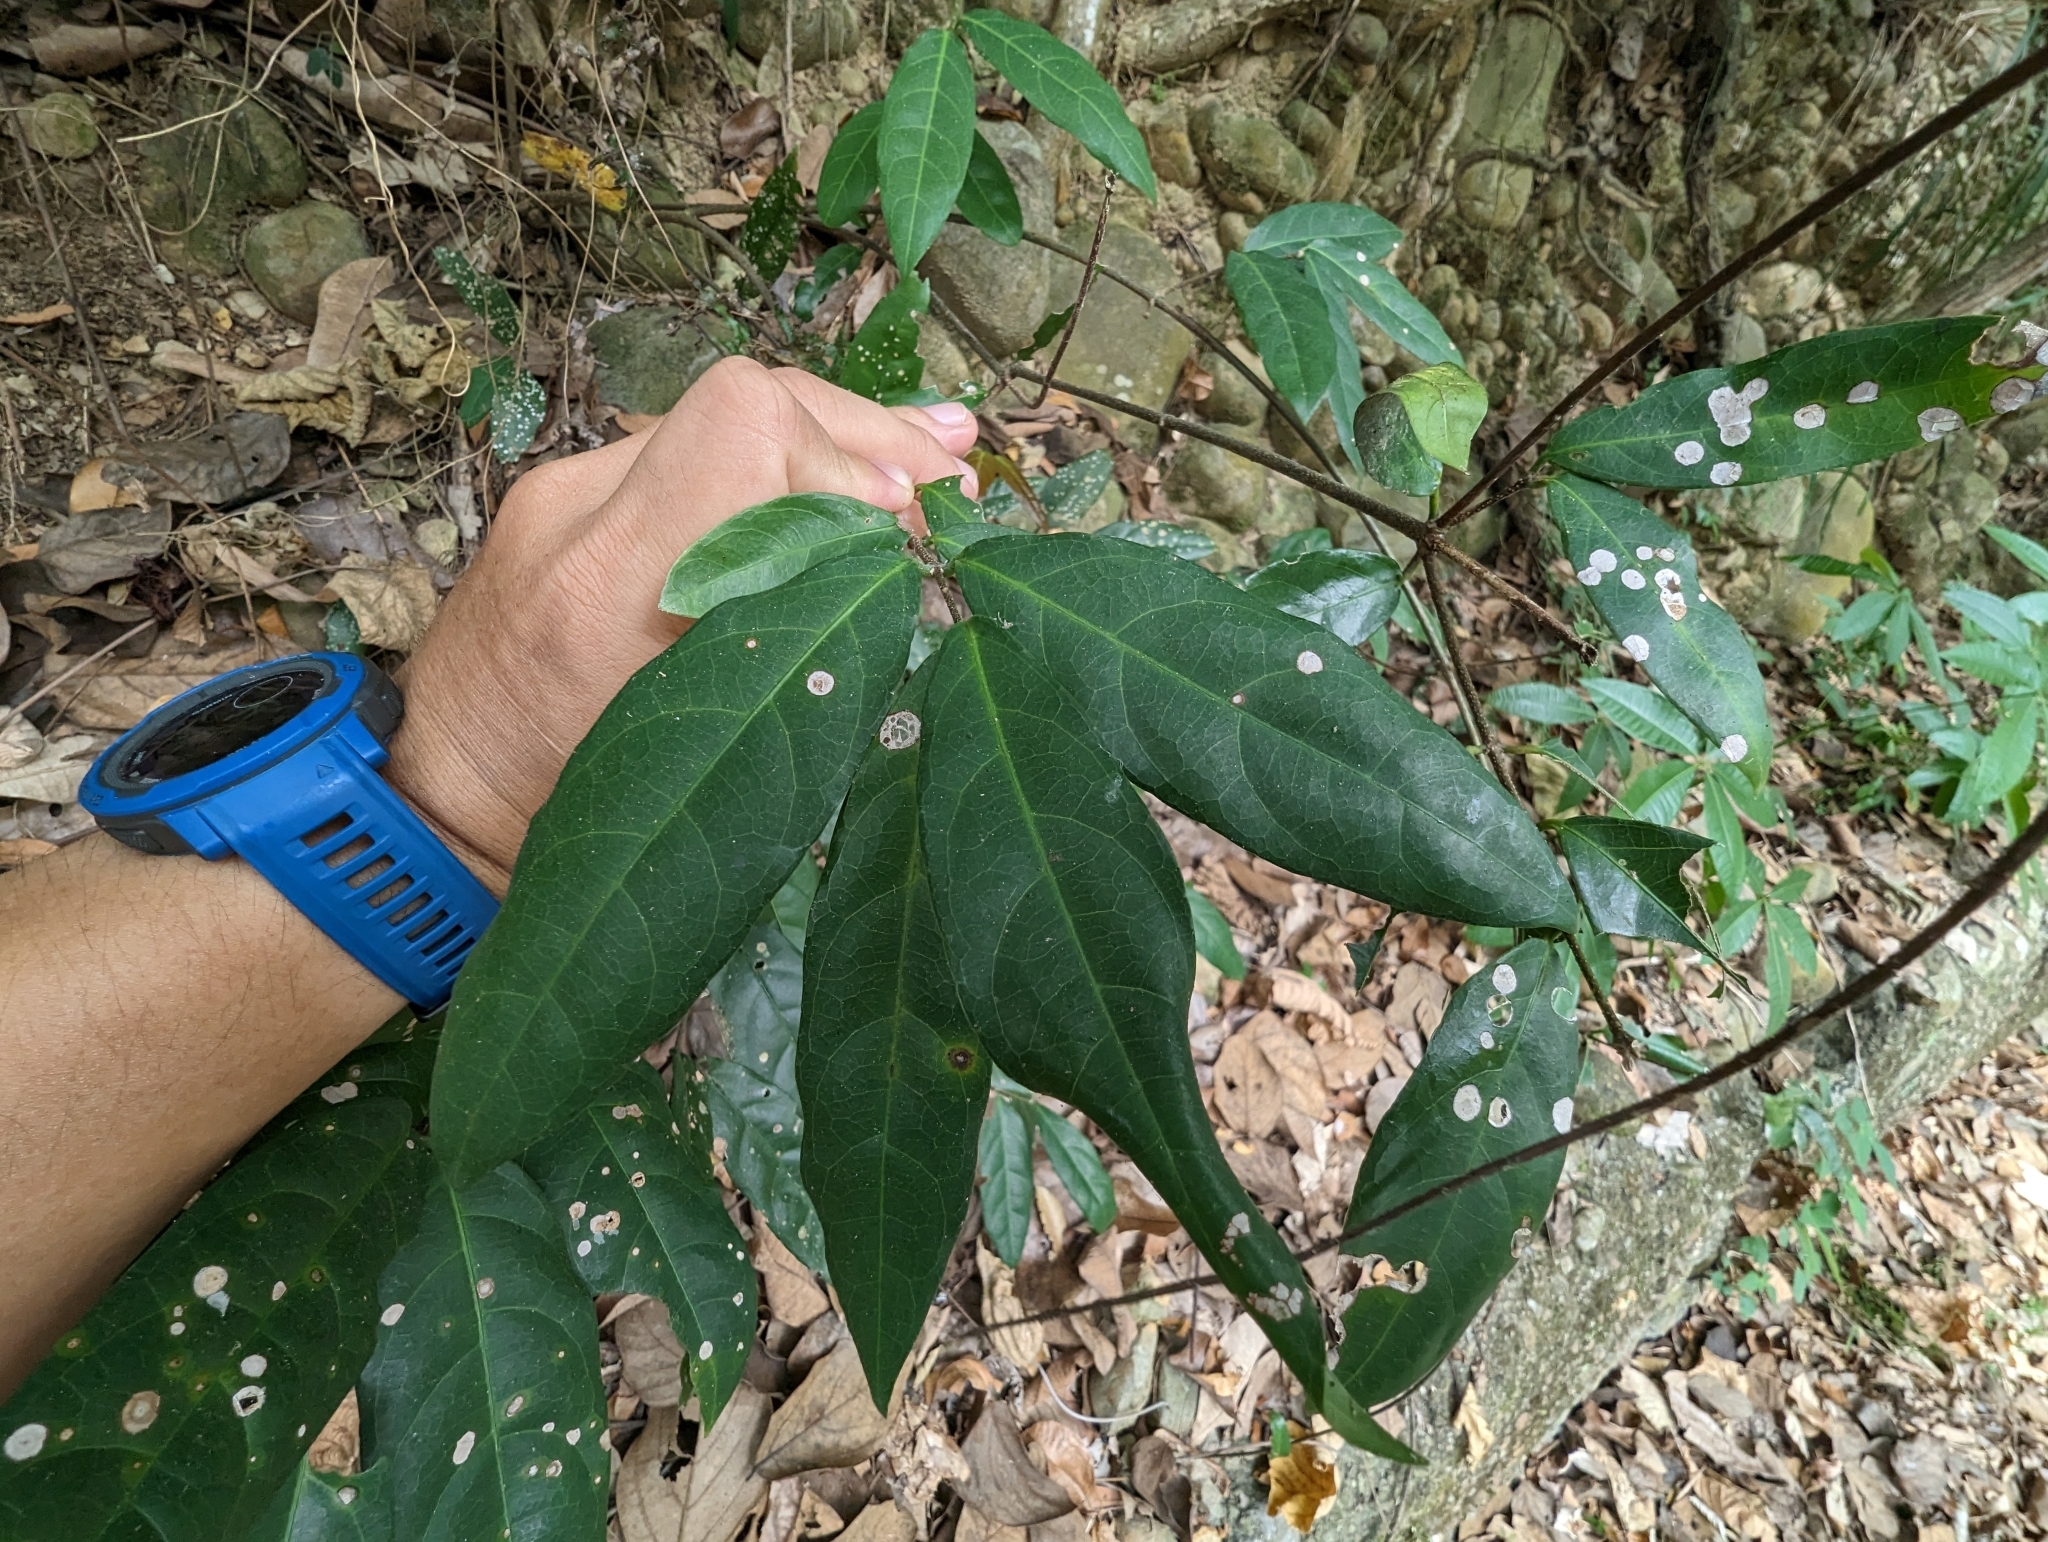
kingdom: Plantae
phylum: Tracheophyta
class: Magnoliopsida
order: Malpighiales
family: Malpighiaceae
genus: Hiptage
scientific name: Hiptage benghalensis
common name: Hiptage
